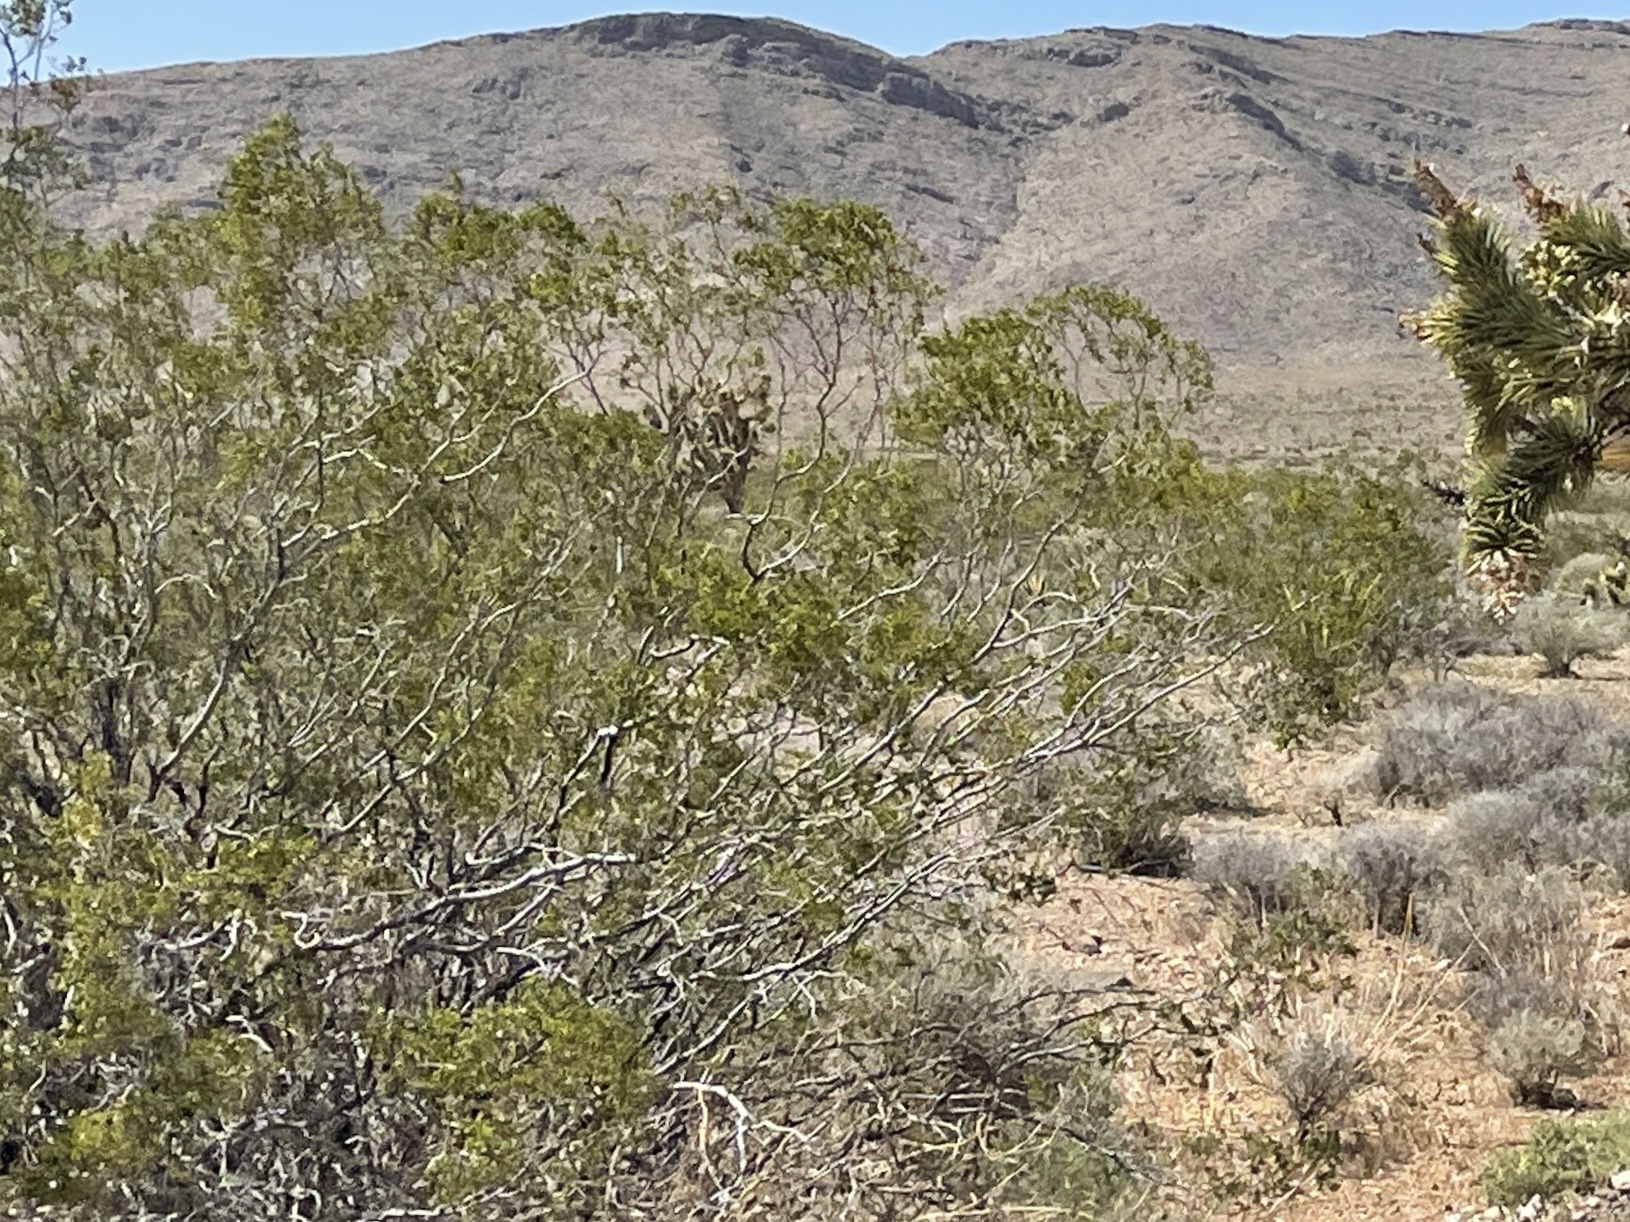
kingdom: Plantae
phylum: Tracheophyta
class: Magnoliopsida
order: Zygophyllales
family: Zygophyllaceae
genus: Larrea
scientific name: Larrea tridentata
